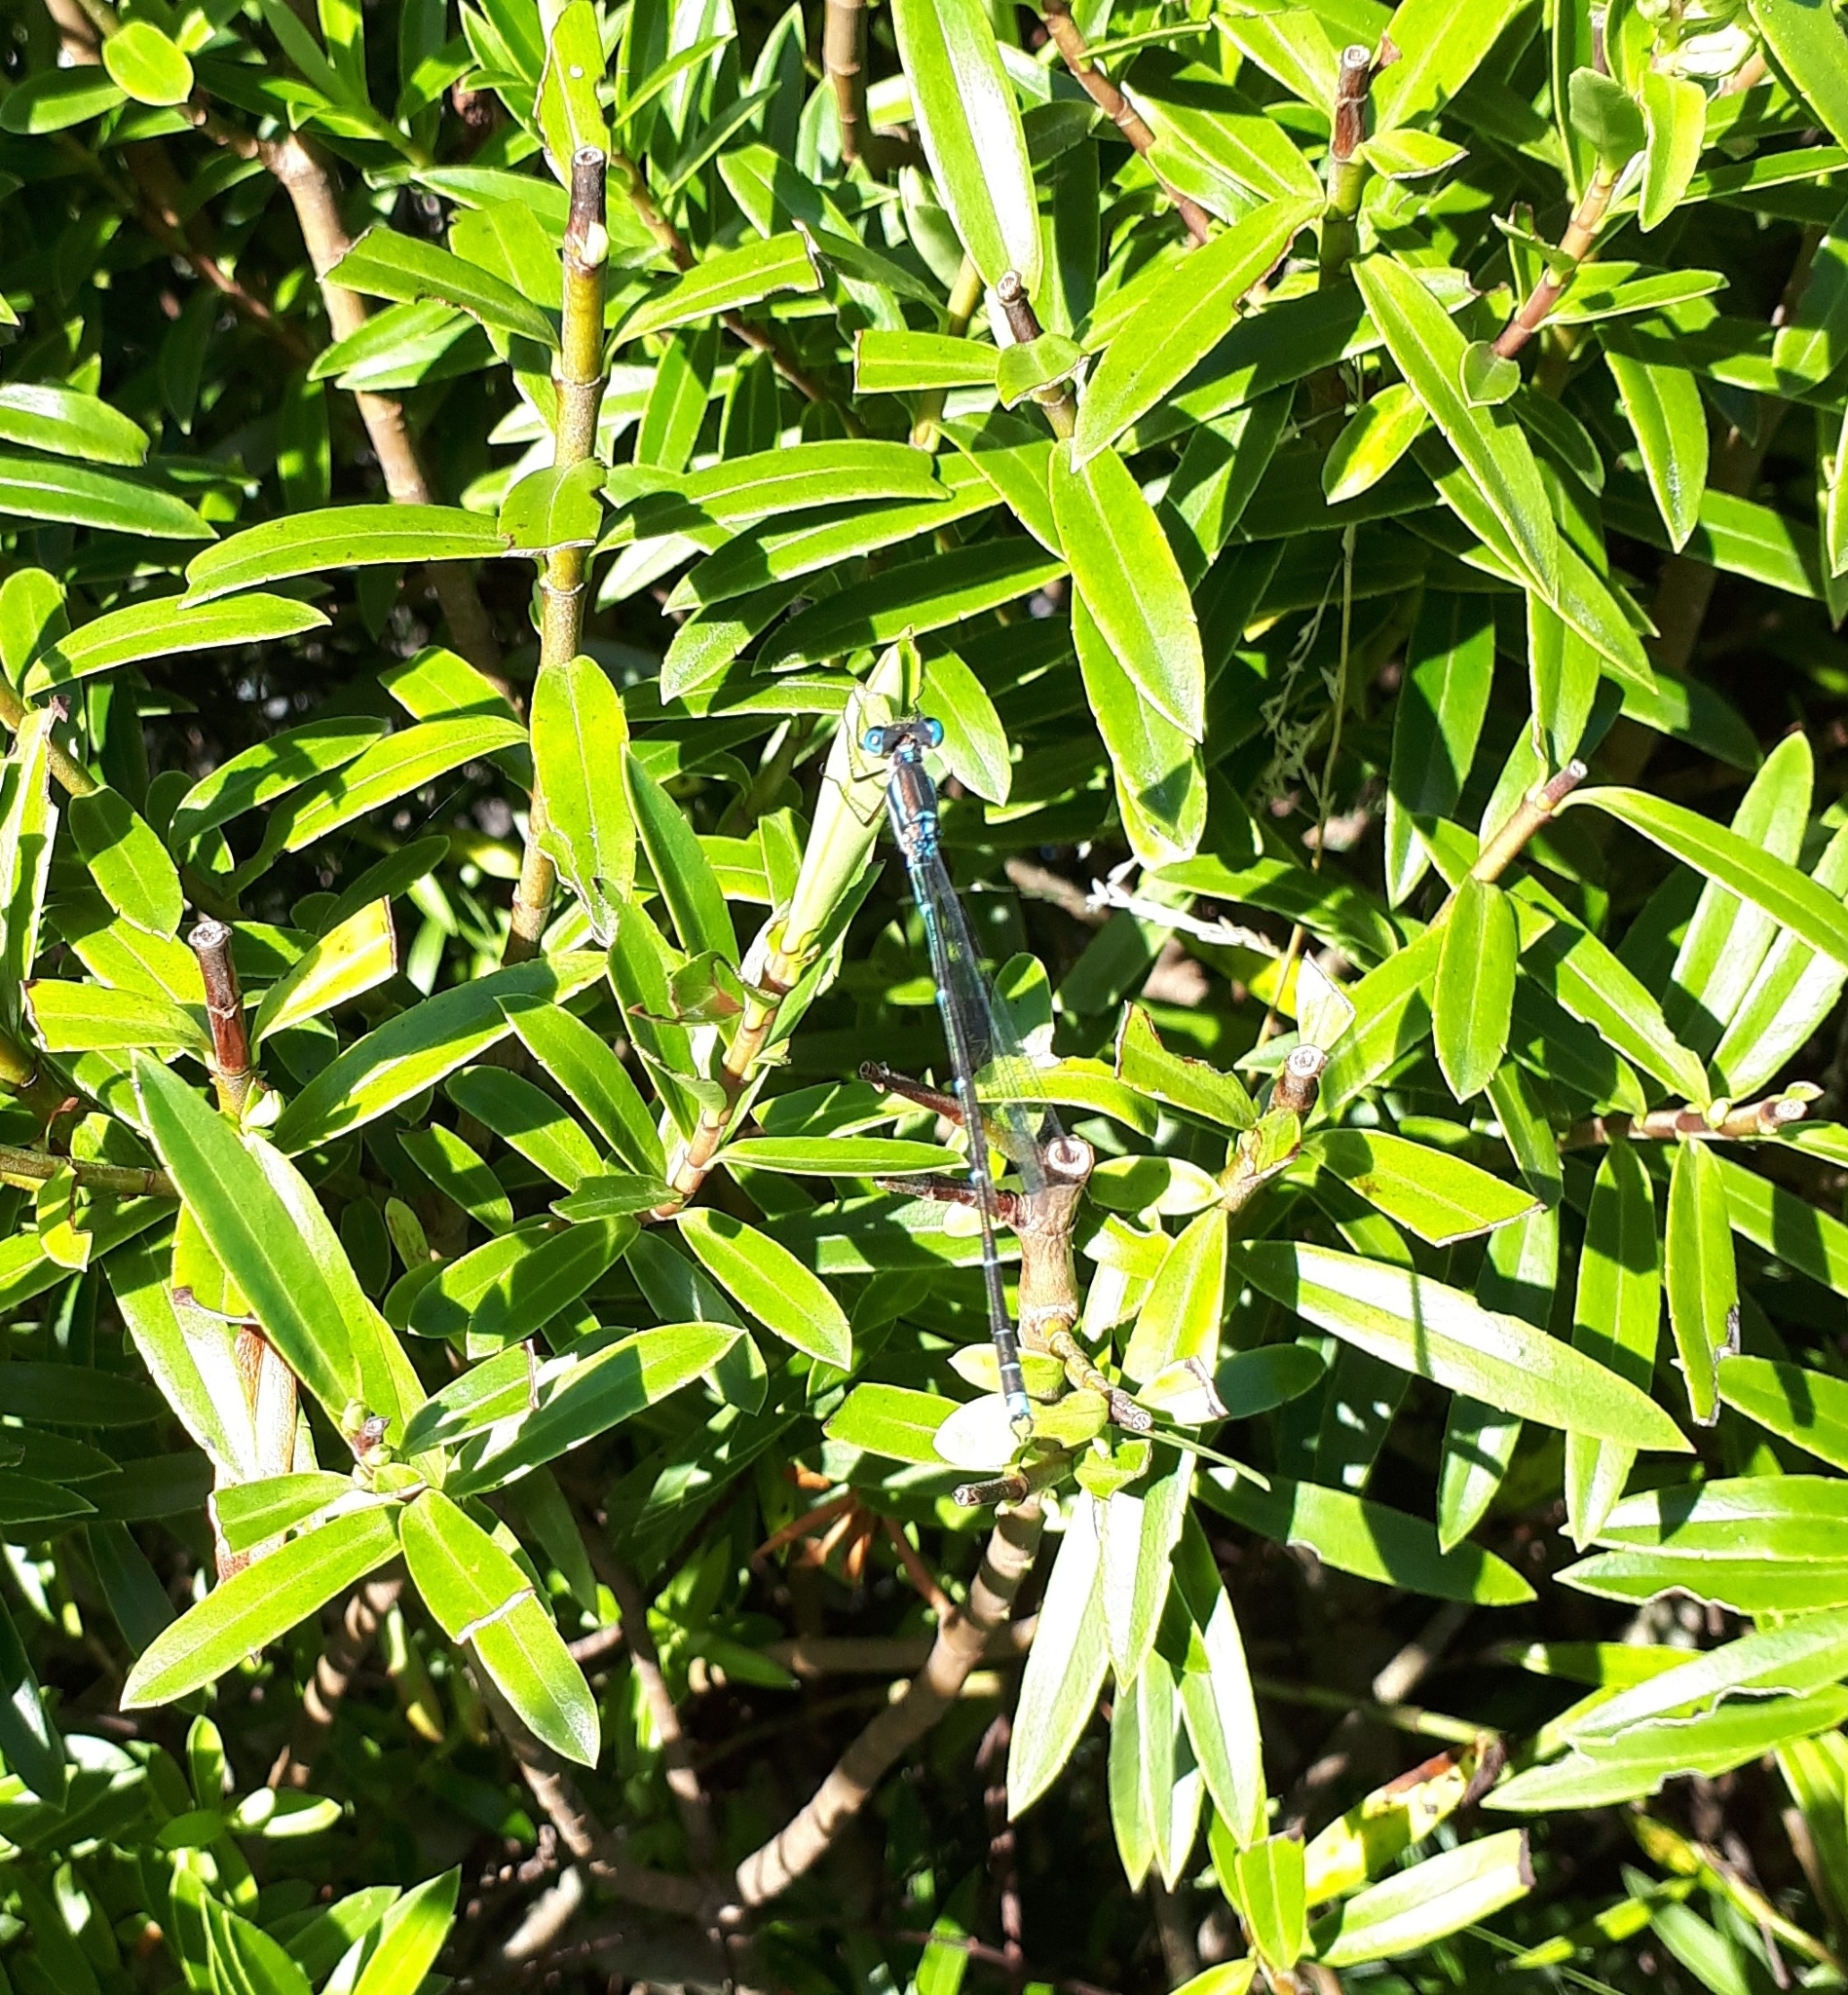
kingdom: Animalia
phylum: Arthropoda
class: Insecta
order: Odonata
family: Lestidae
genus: Austrolestes
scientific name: Austrolestes colensonis
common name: Blue damselfly
